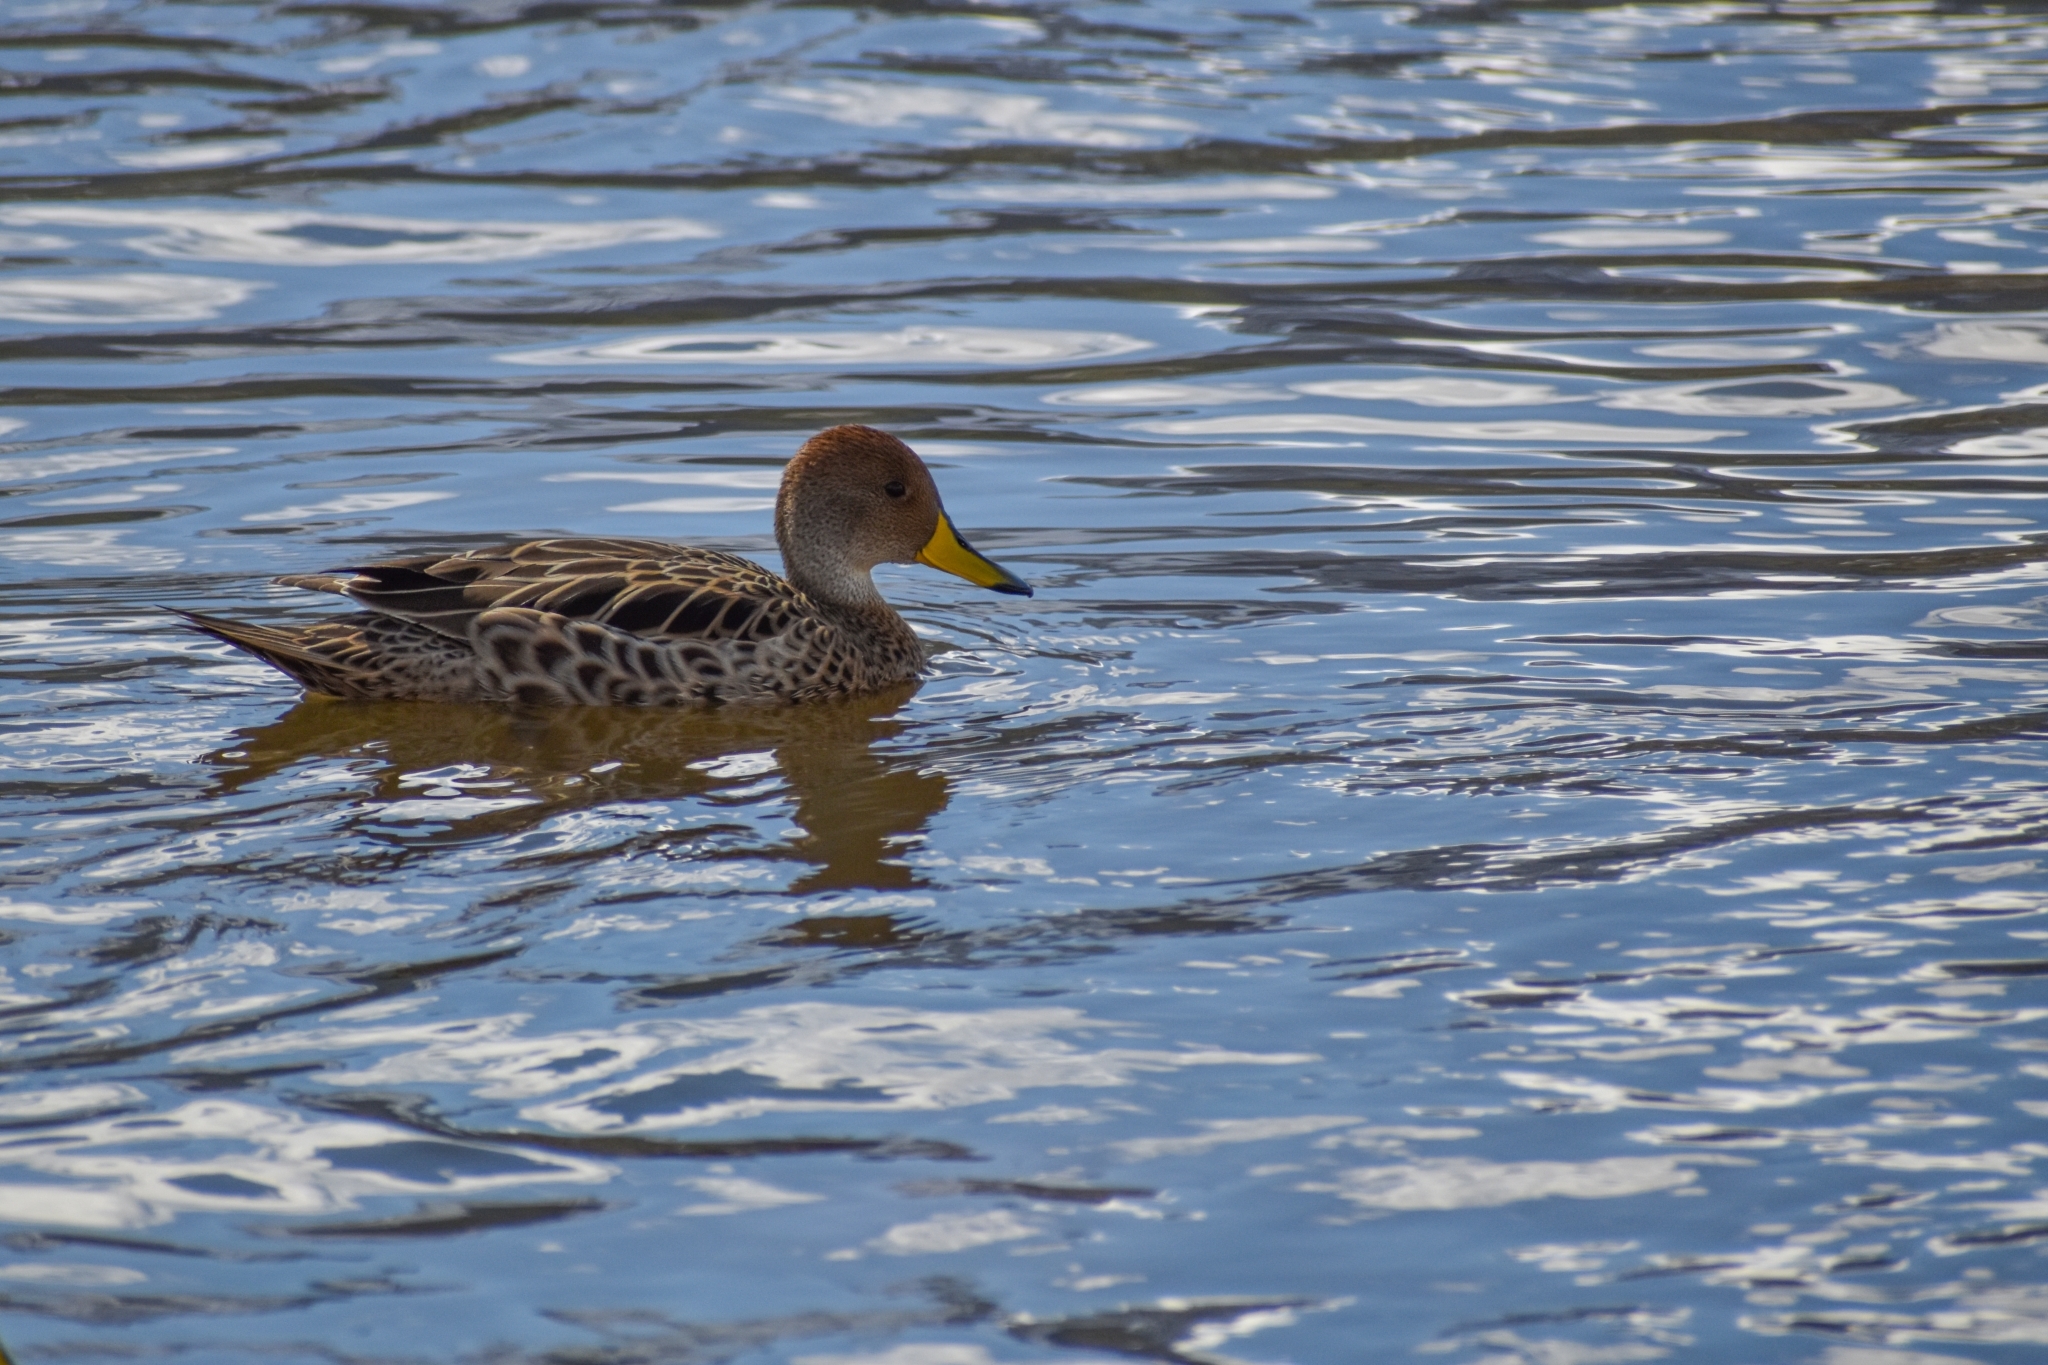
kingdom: Animalia
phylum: Chordata
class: Aves
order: Anseriformes
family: Anatidae
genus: Anas
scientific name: Anas georgica
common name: Yellow-billed pintail
